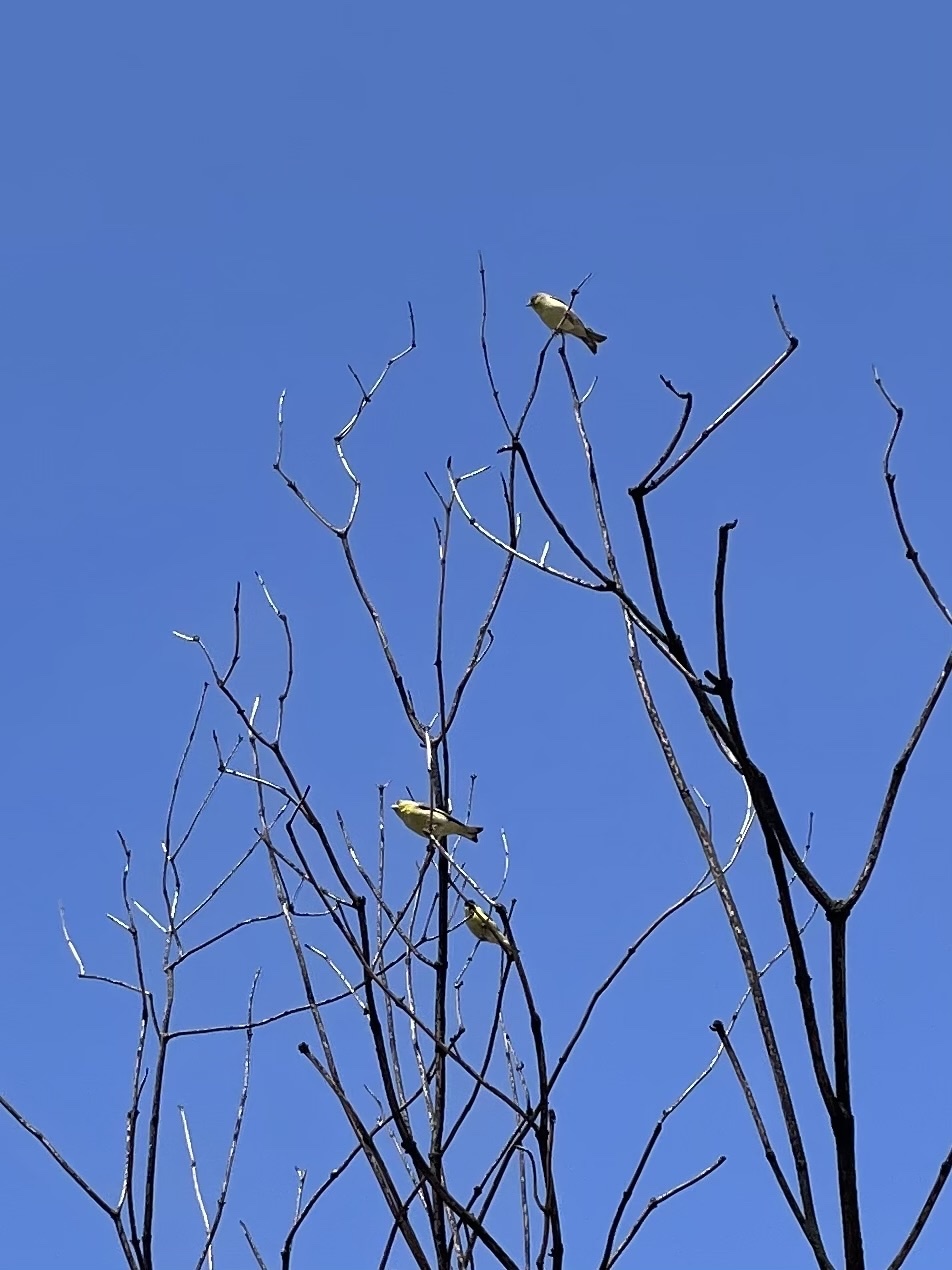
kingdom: Animalia
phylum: Chordata
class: Aves
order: Passeriformes
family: Fringillidae
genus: Spinus
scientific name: Spinus psaltria
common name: Lesser goldfinch
